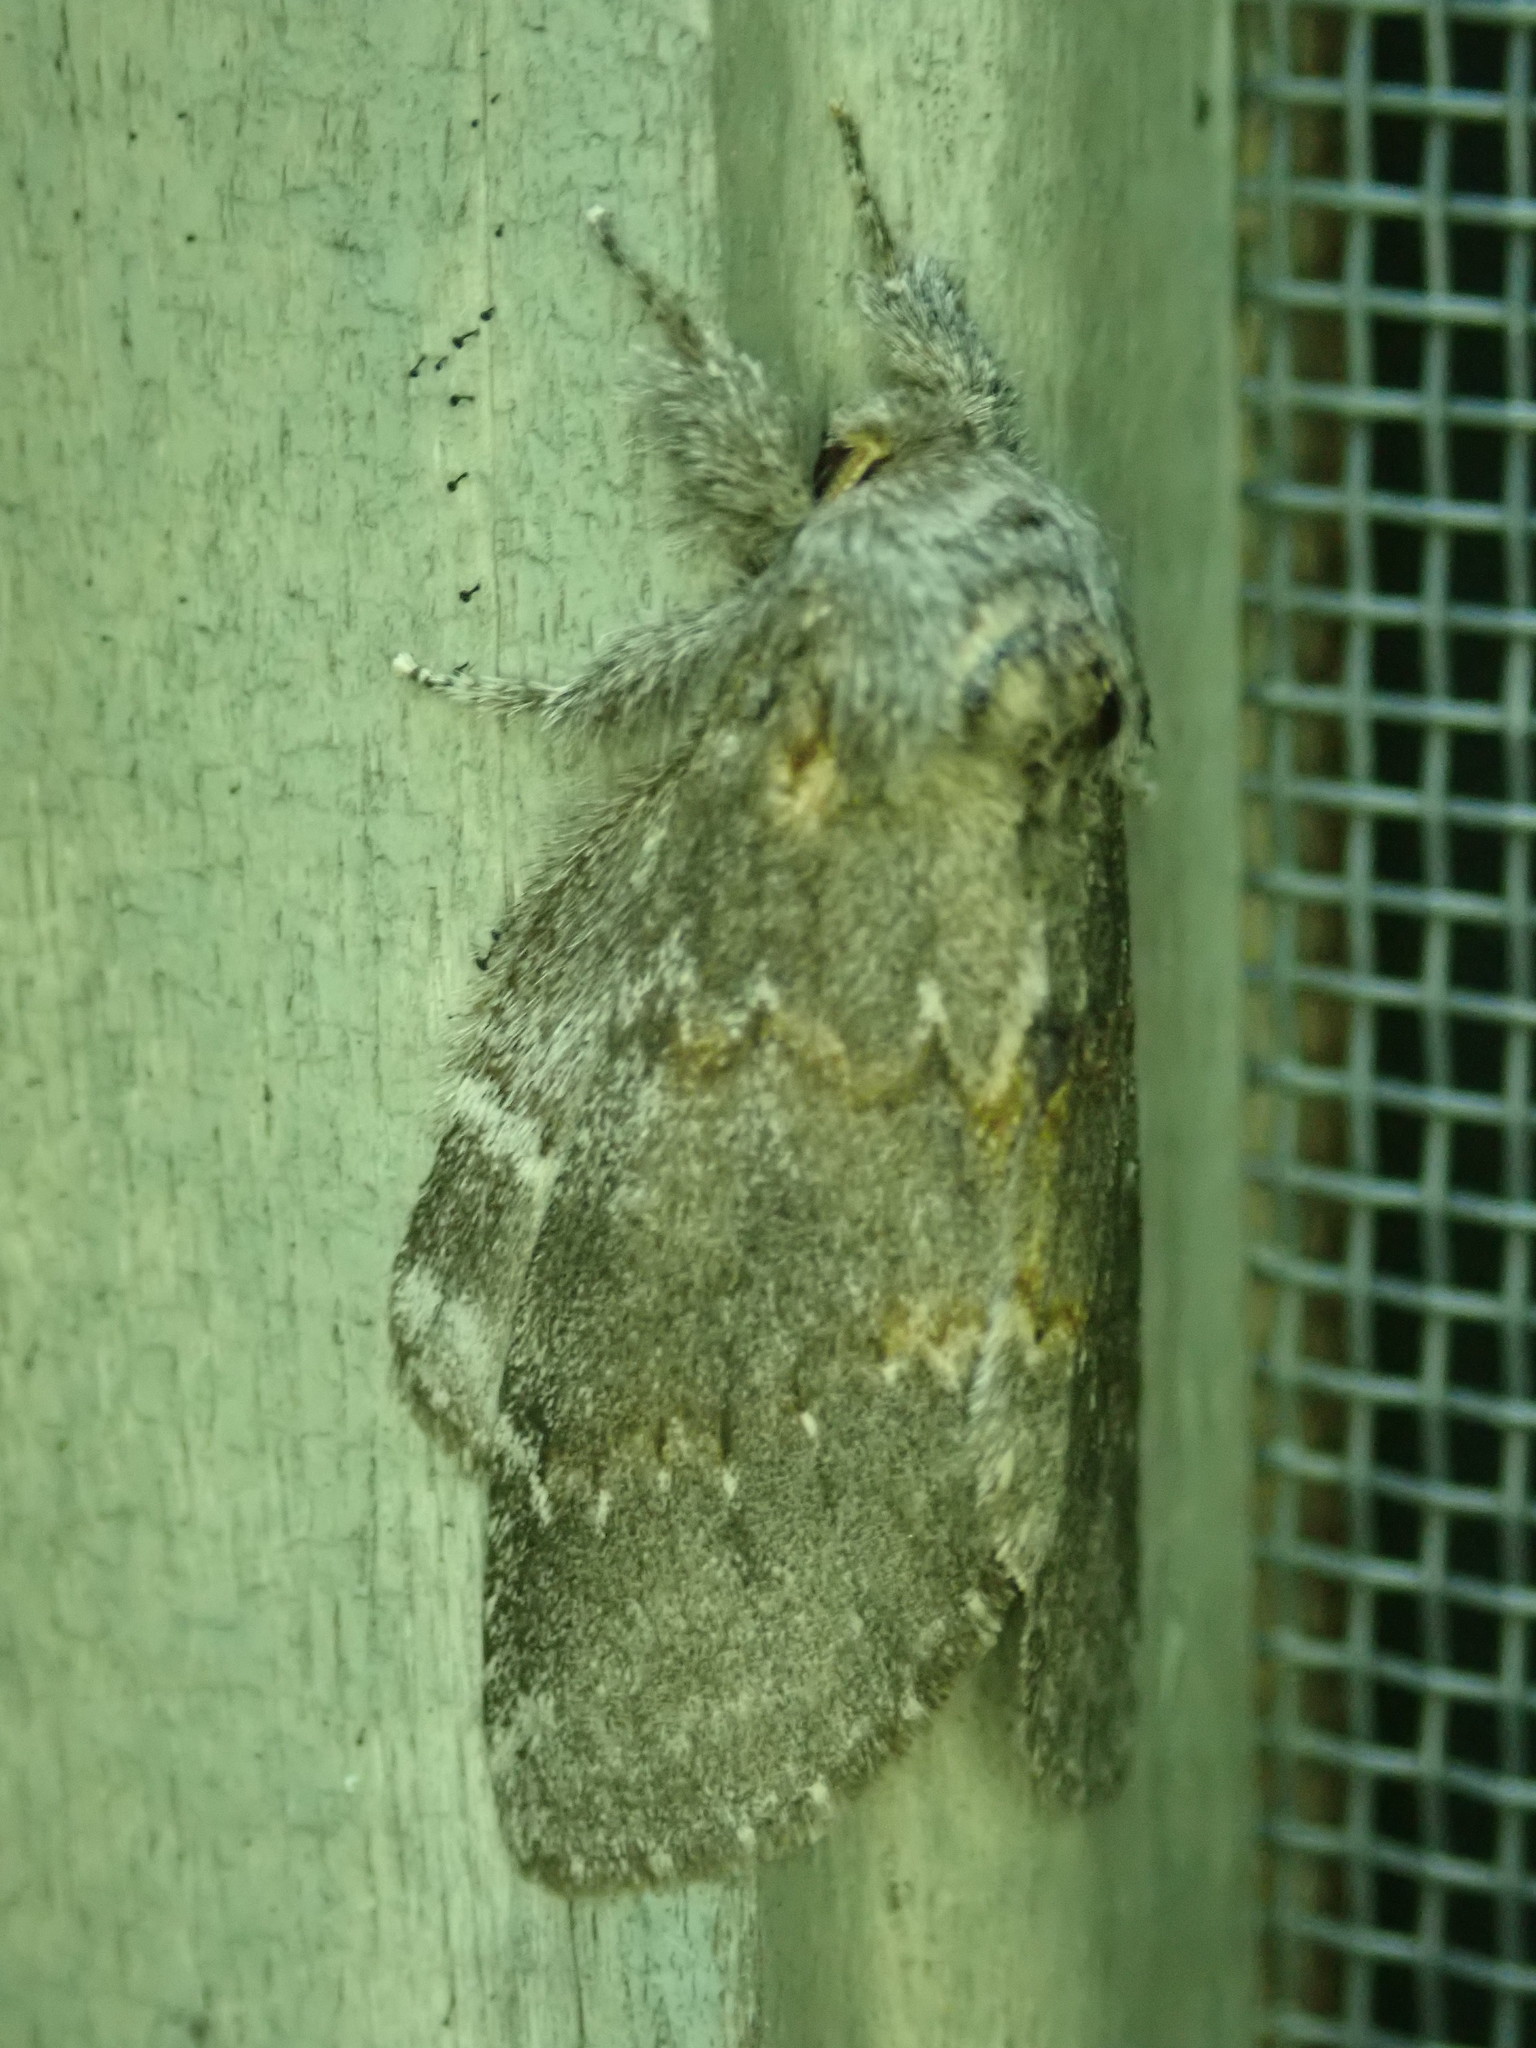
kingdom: Animalia
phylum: Arthropoda
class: Insecta
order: Lepidoptera
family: Notodontidae
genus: Peridea
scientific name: Peridea angulosa
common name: Angulose prominent
